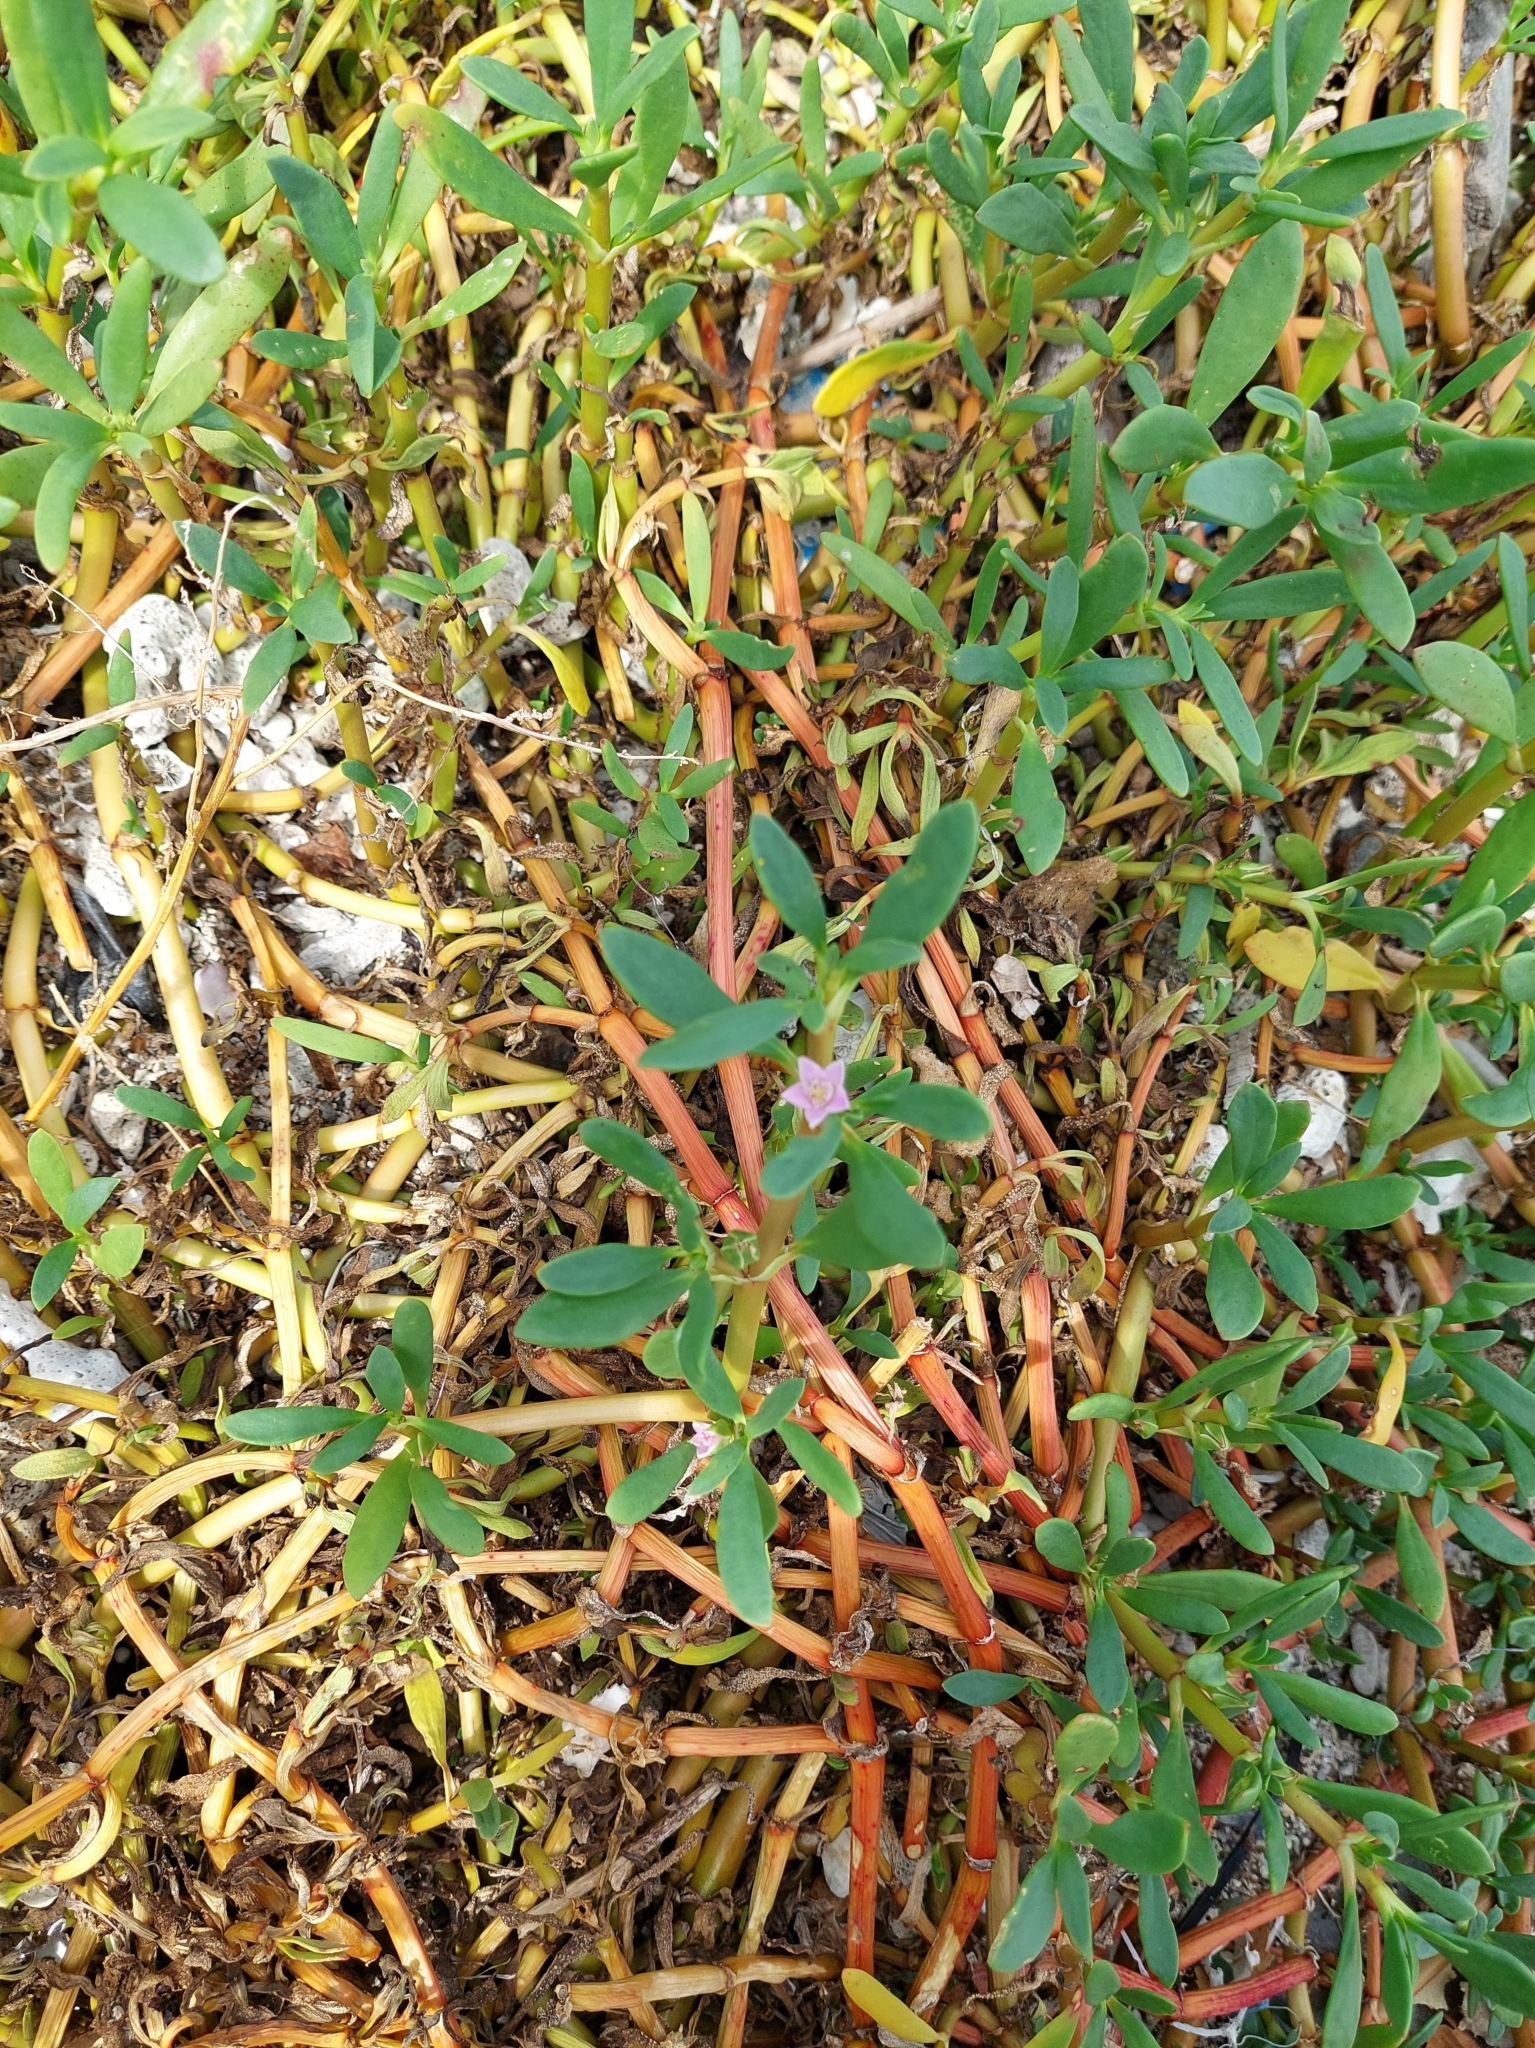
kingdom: Plantae
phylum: Tracheophyta
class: Magnoliopsida
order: Caryophyllales
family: Aizoaceae
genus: Sesuvium
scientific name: Sesuvium portulacastrum
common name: Sea-purslane
